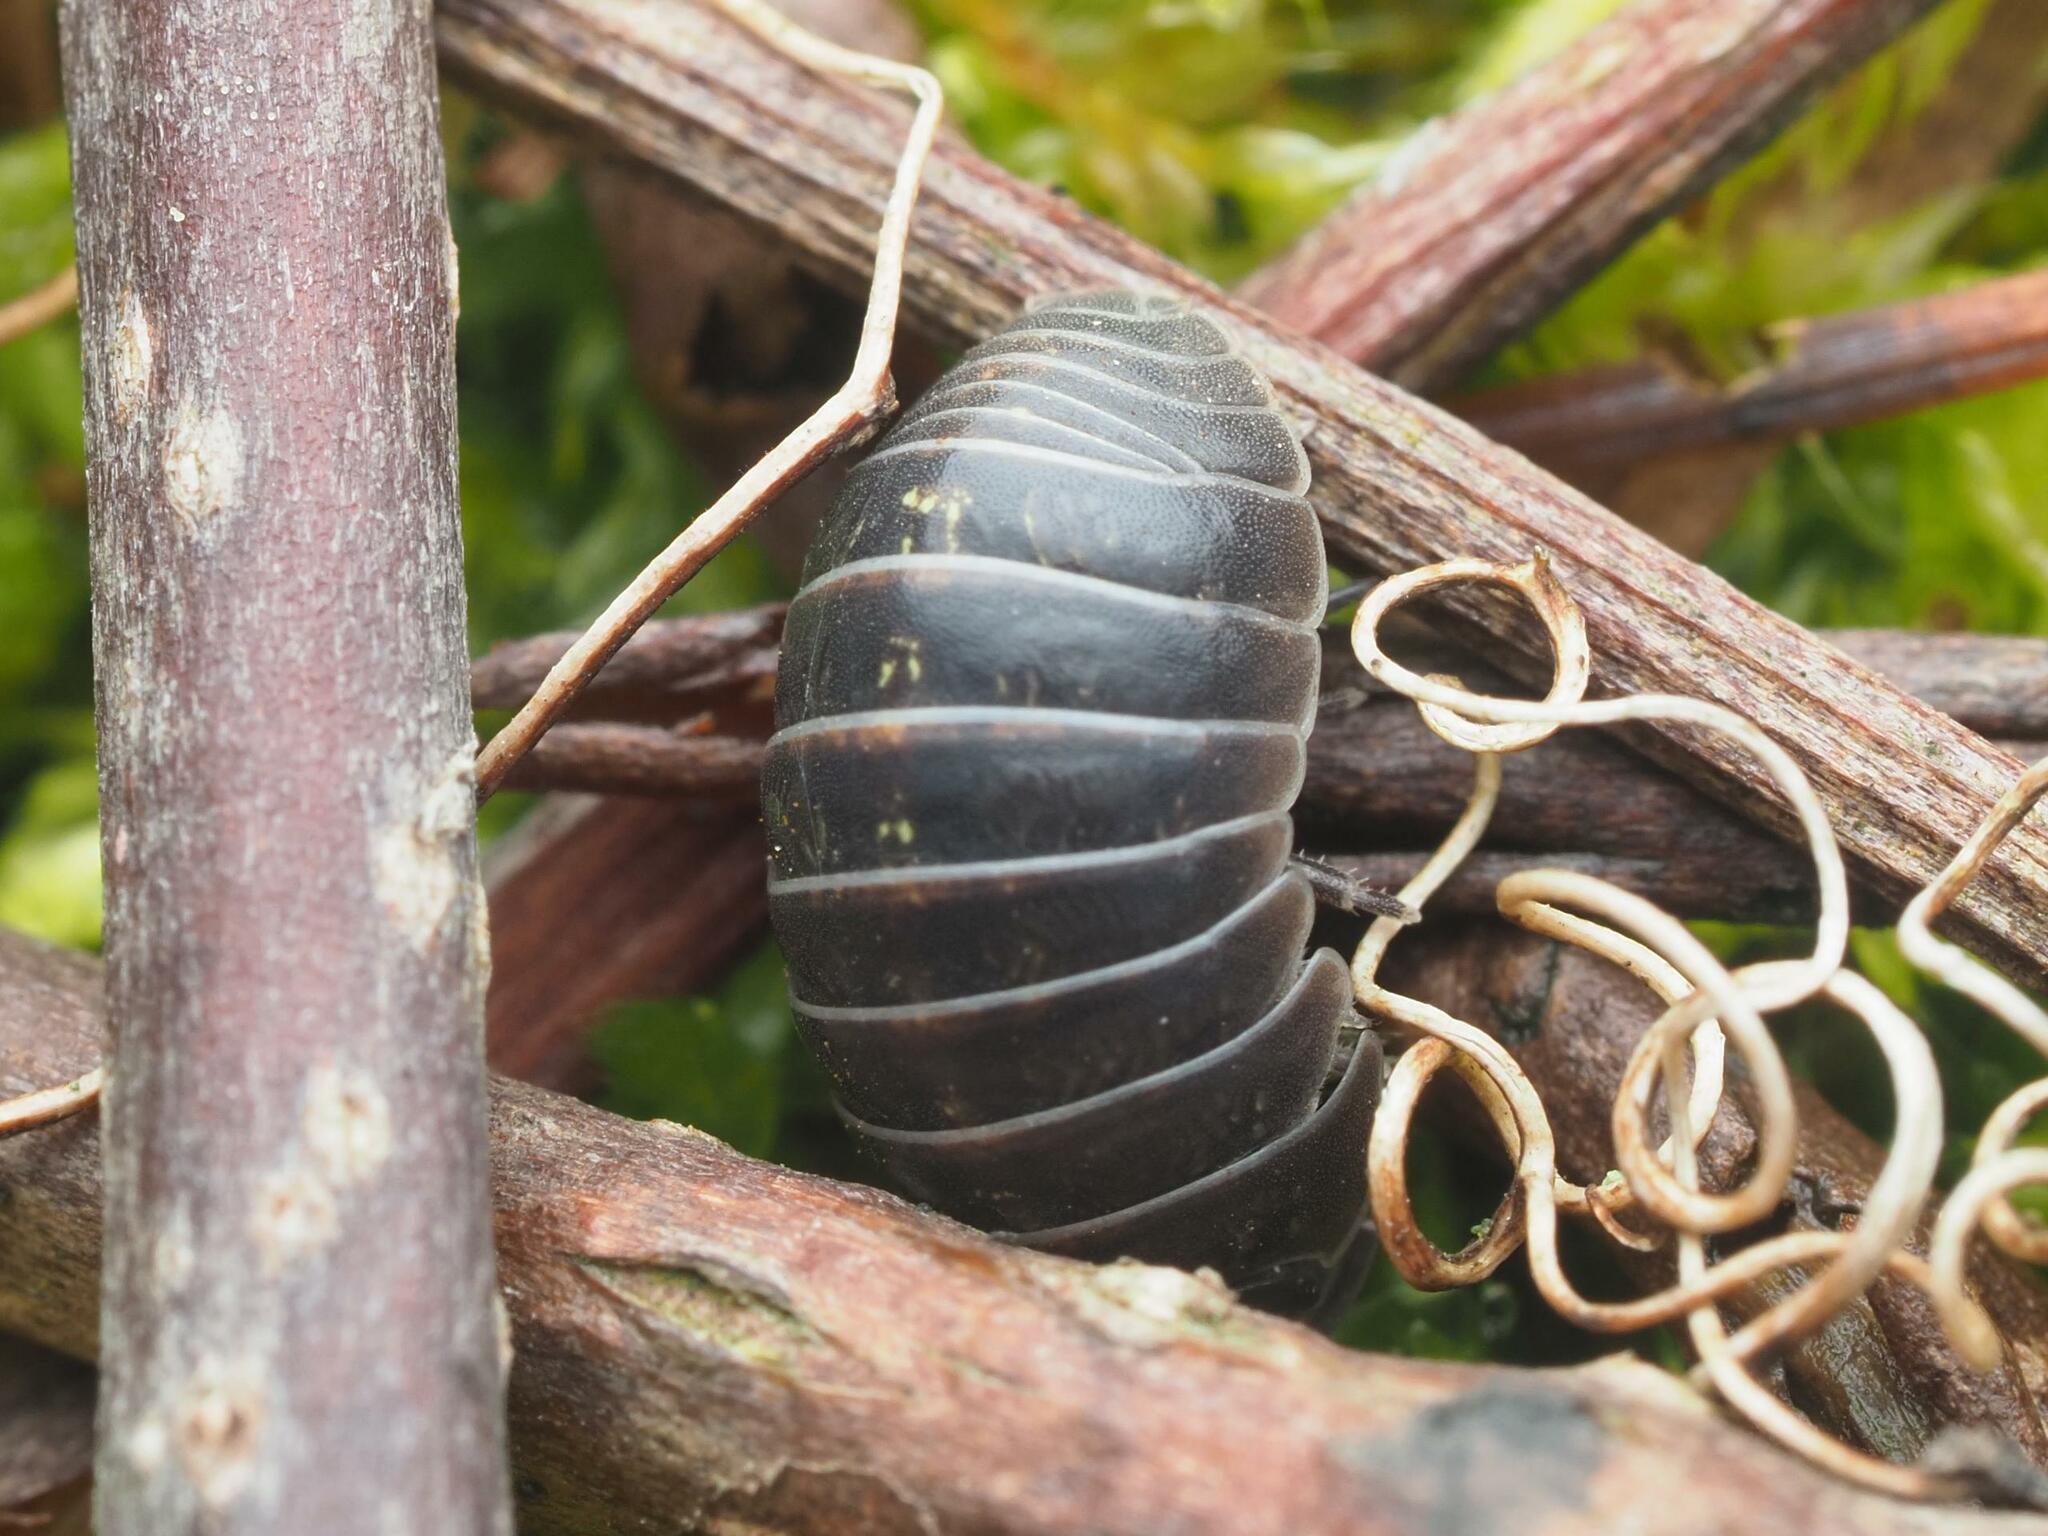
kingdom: Animalia
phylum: Arthropoda
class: Malacostraca
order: Isopoda
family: Armadillidiidae
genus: Armadillidium
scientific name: Armadillidium vulgare
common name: Common pill woodlouse
